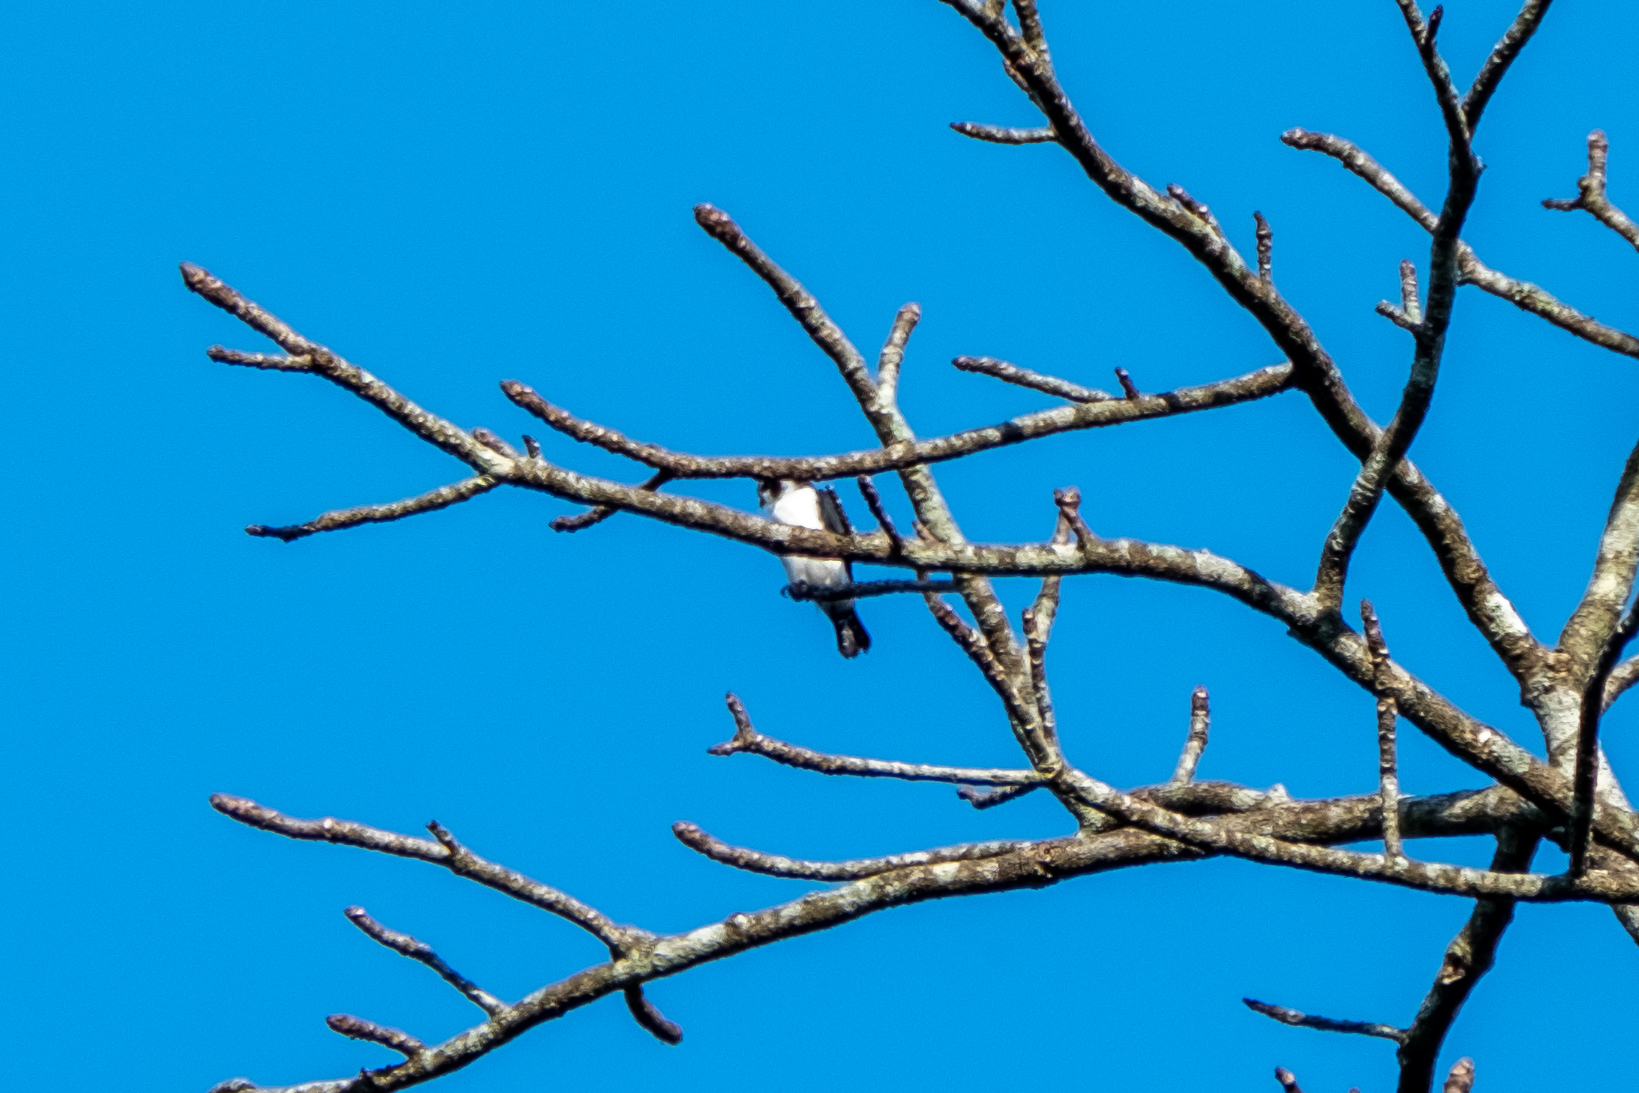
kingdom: Animalia
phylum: Chordata
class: Aves
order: Falconiformes
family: Falconidae
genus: Microhierax
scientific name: Microhierax melanoleucos
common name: Pied falconet
